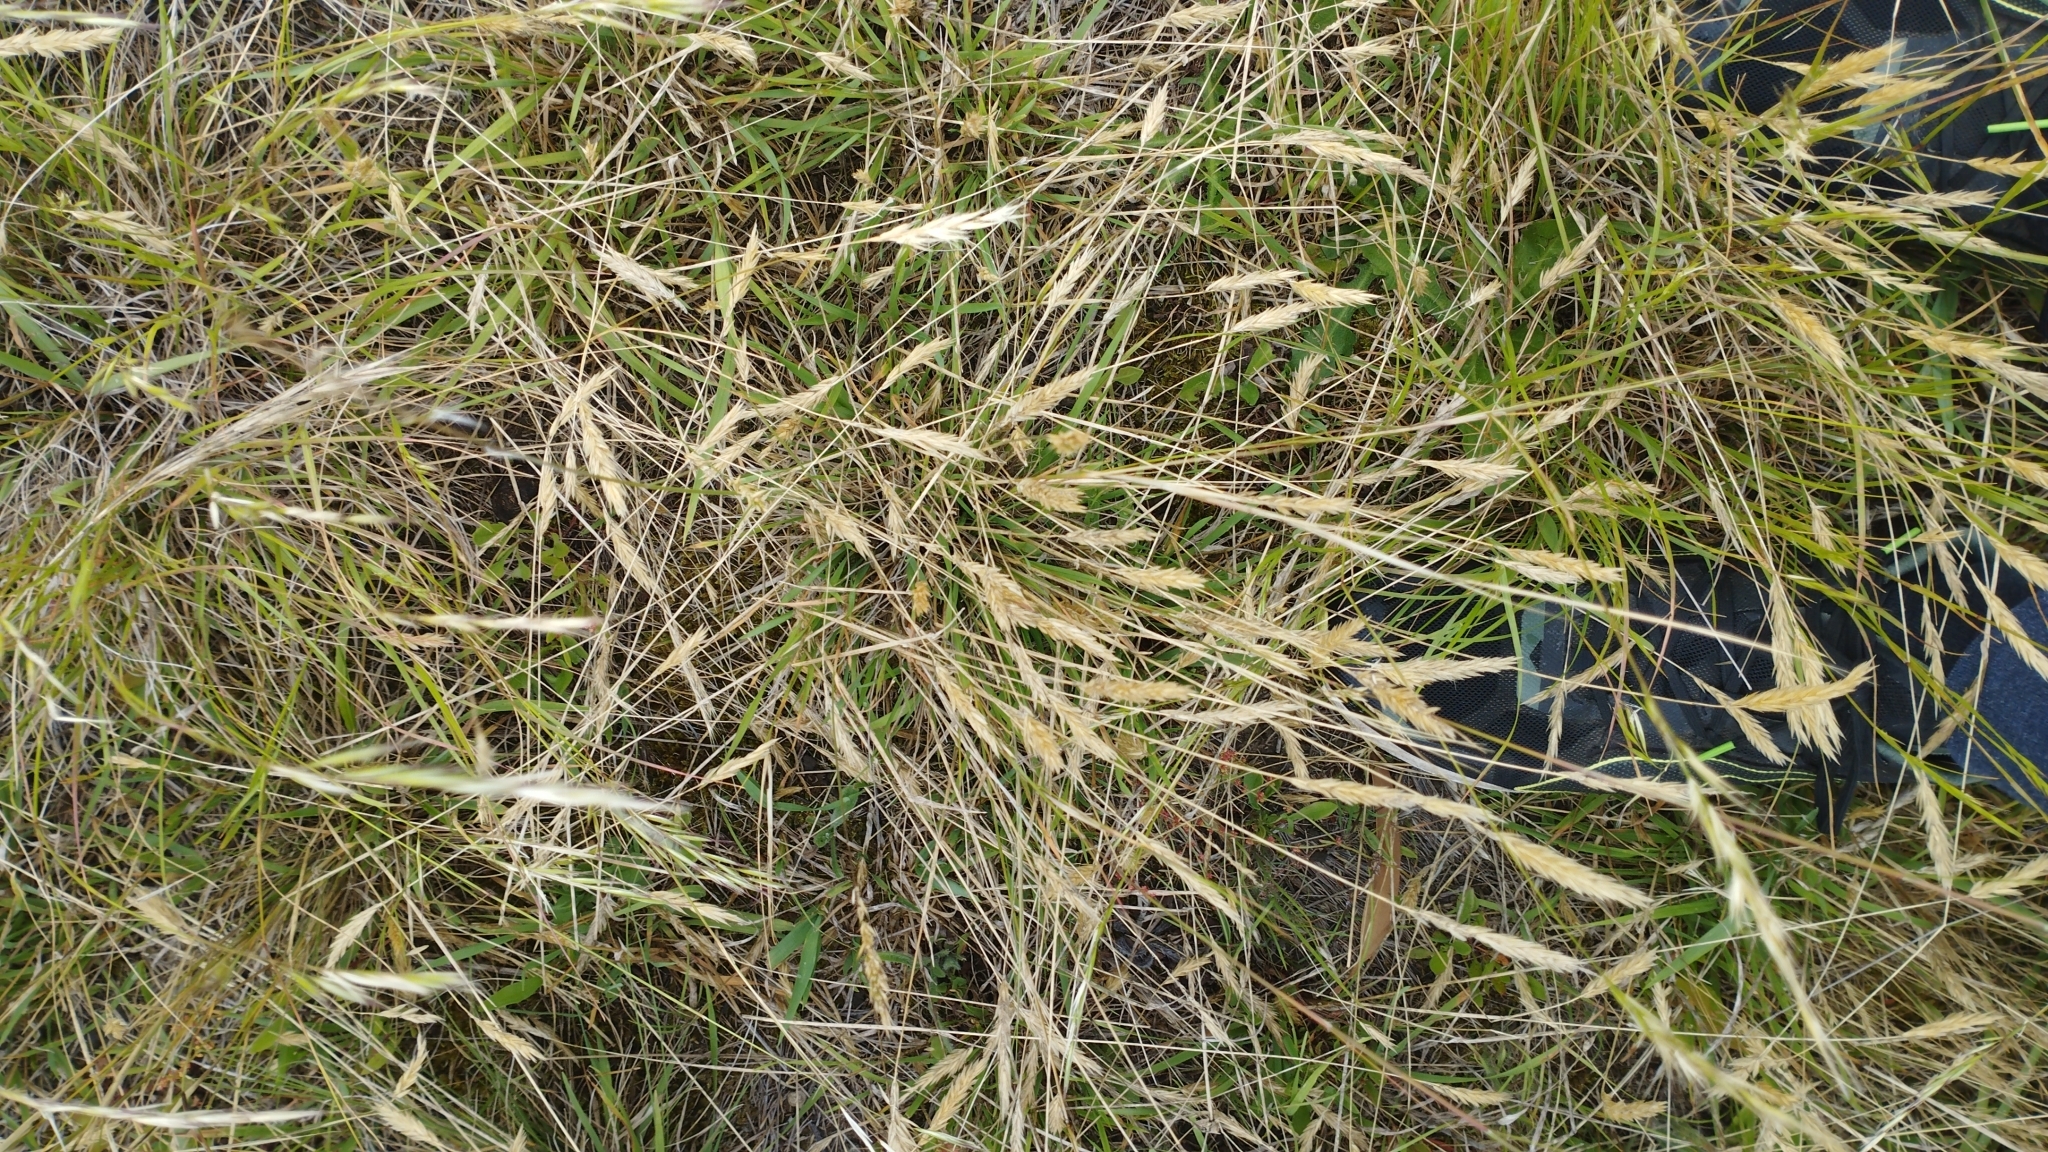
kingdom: Plantae
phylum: Tracheophyta
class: Liliopsida
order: Poales
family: Poaceae
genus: Anthoxanthum
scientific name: Anthoxanthum odoratum
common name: Sweet vernalgrass
